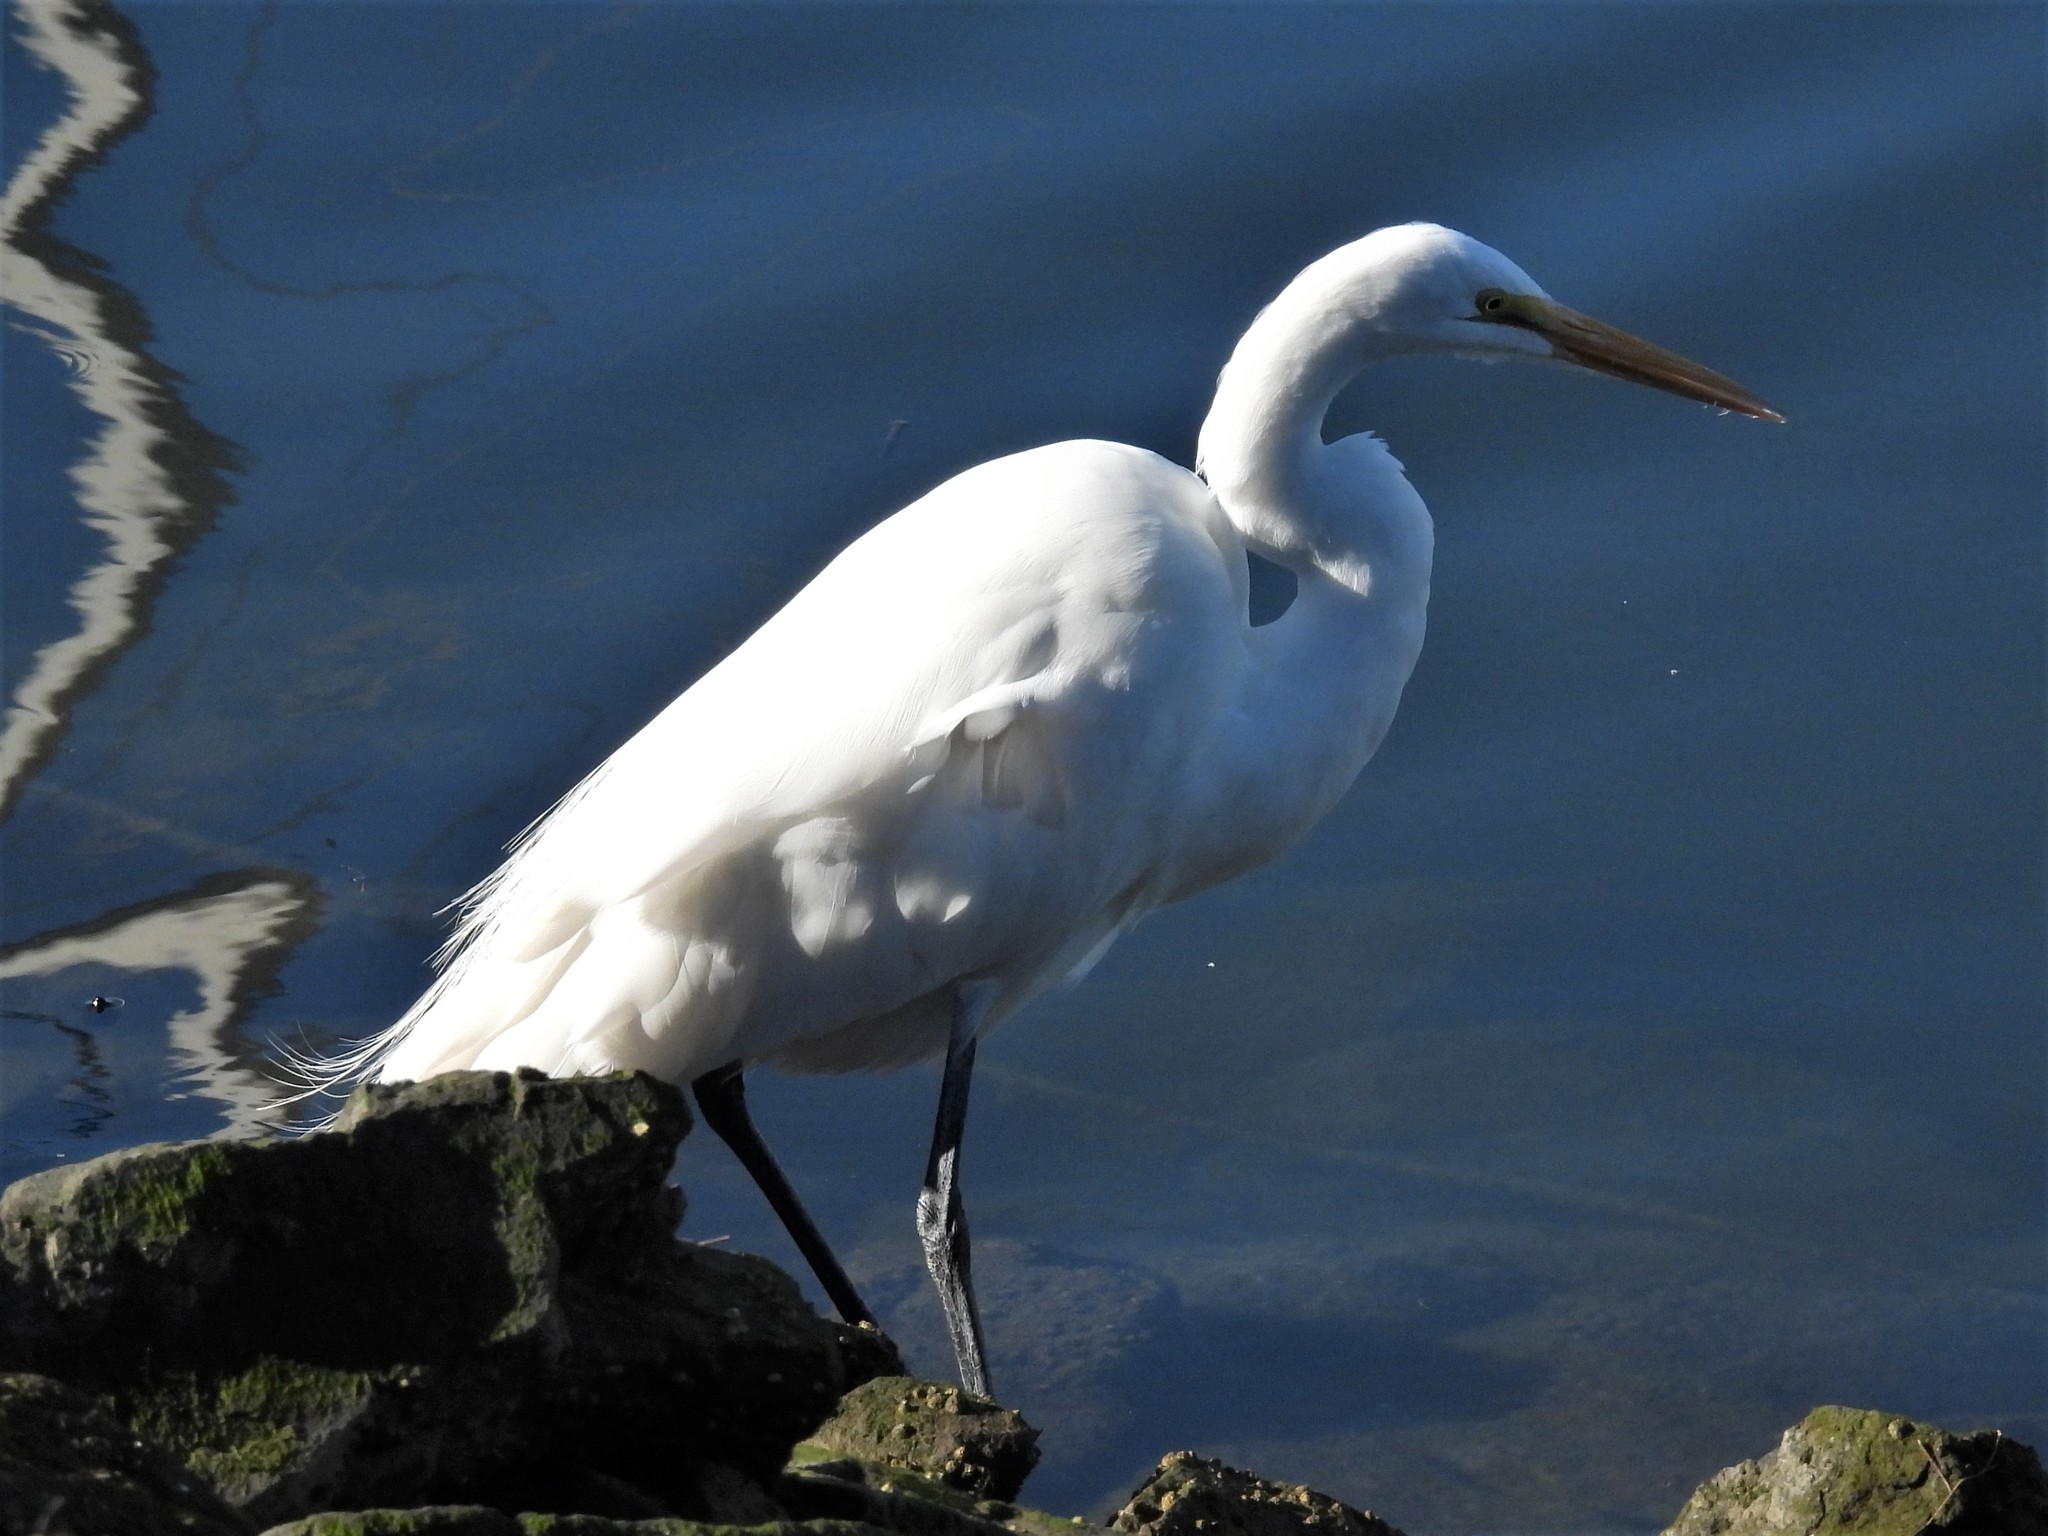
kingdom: Animalia
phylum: Chordata
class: Aves
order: Pelecaniformes
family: Ardeidae
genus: Ardea
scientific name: Ardea alba
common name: Great egret
